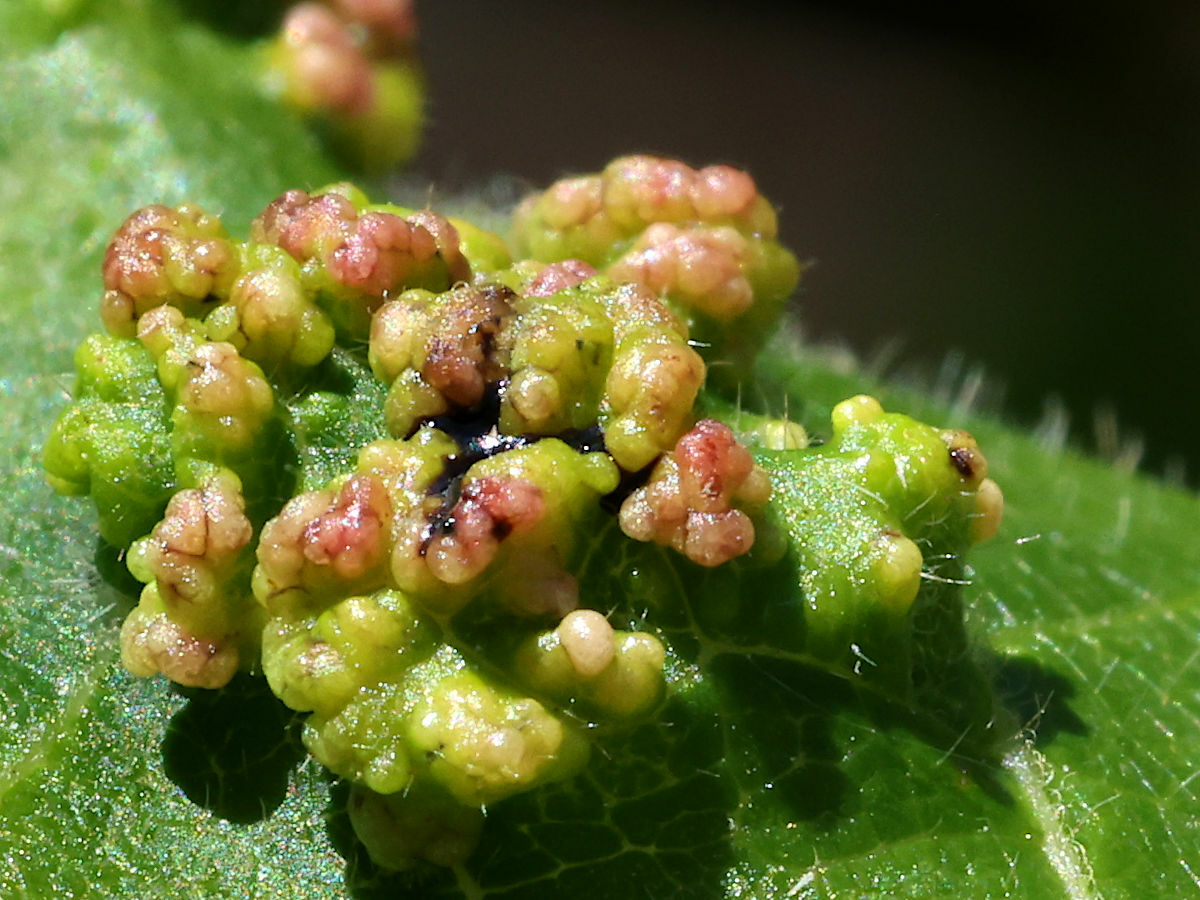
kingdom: Animalia
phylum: Arthropoda
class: Arachnida
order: Trombidiformes
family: Eriophyidae
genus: Aculops
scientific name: Aculops
